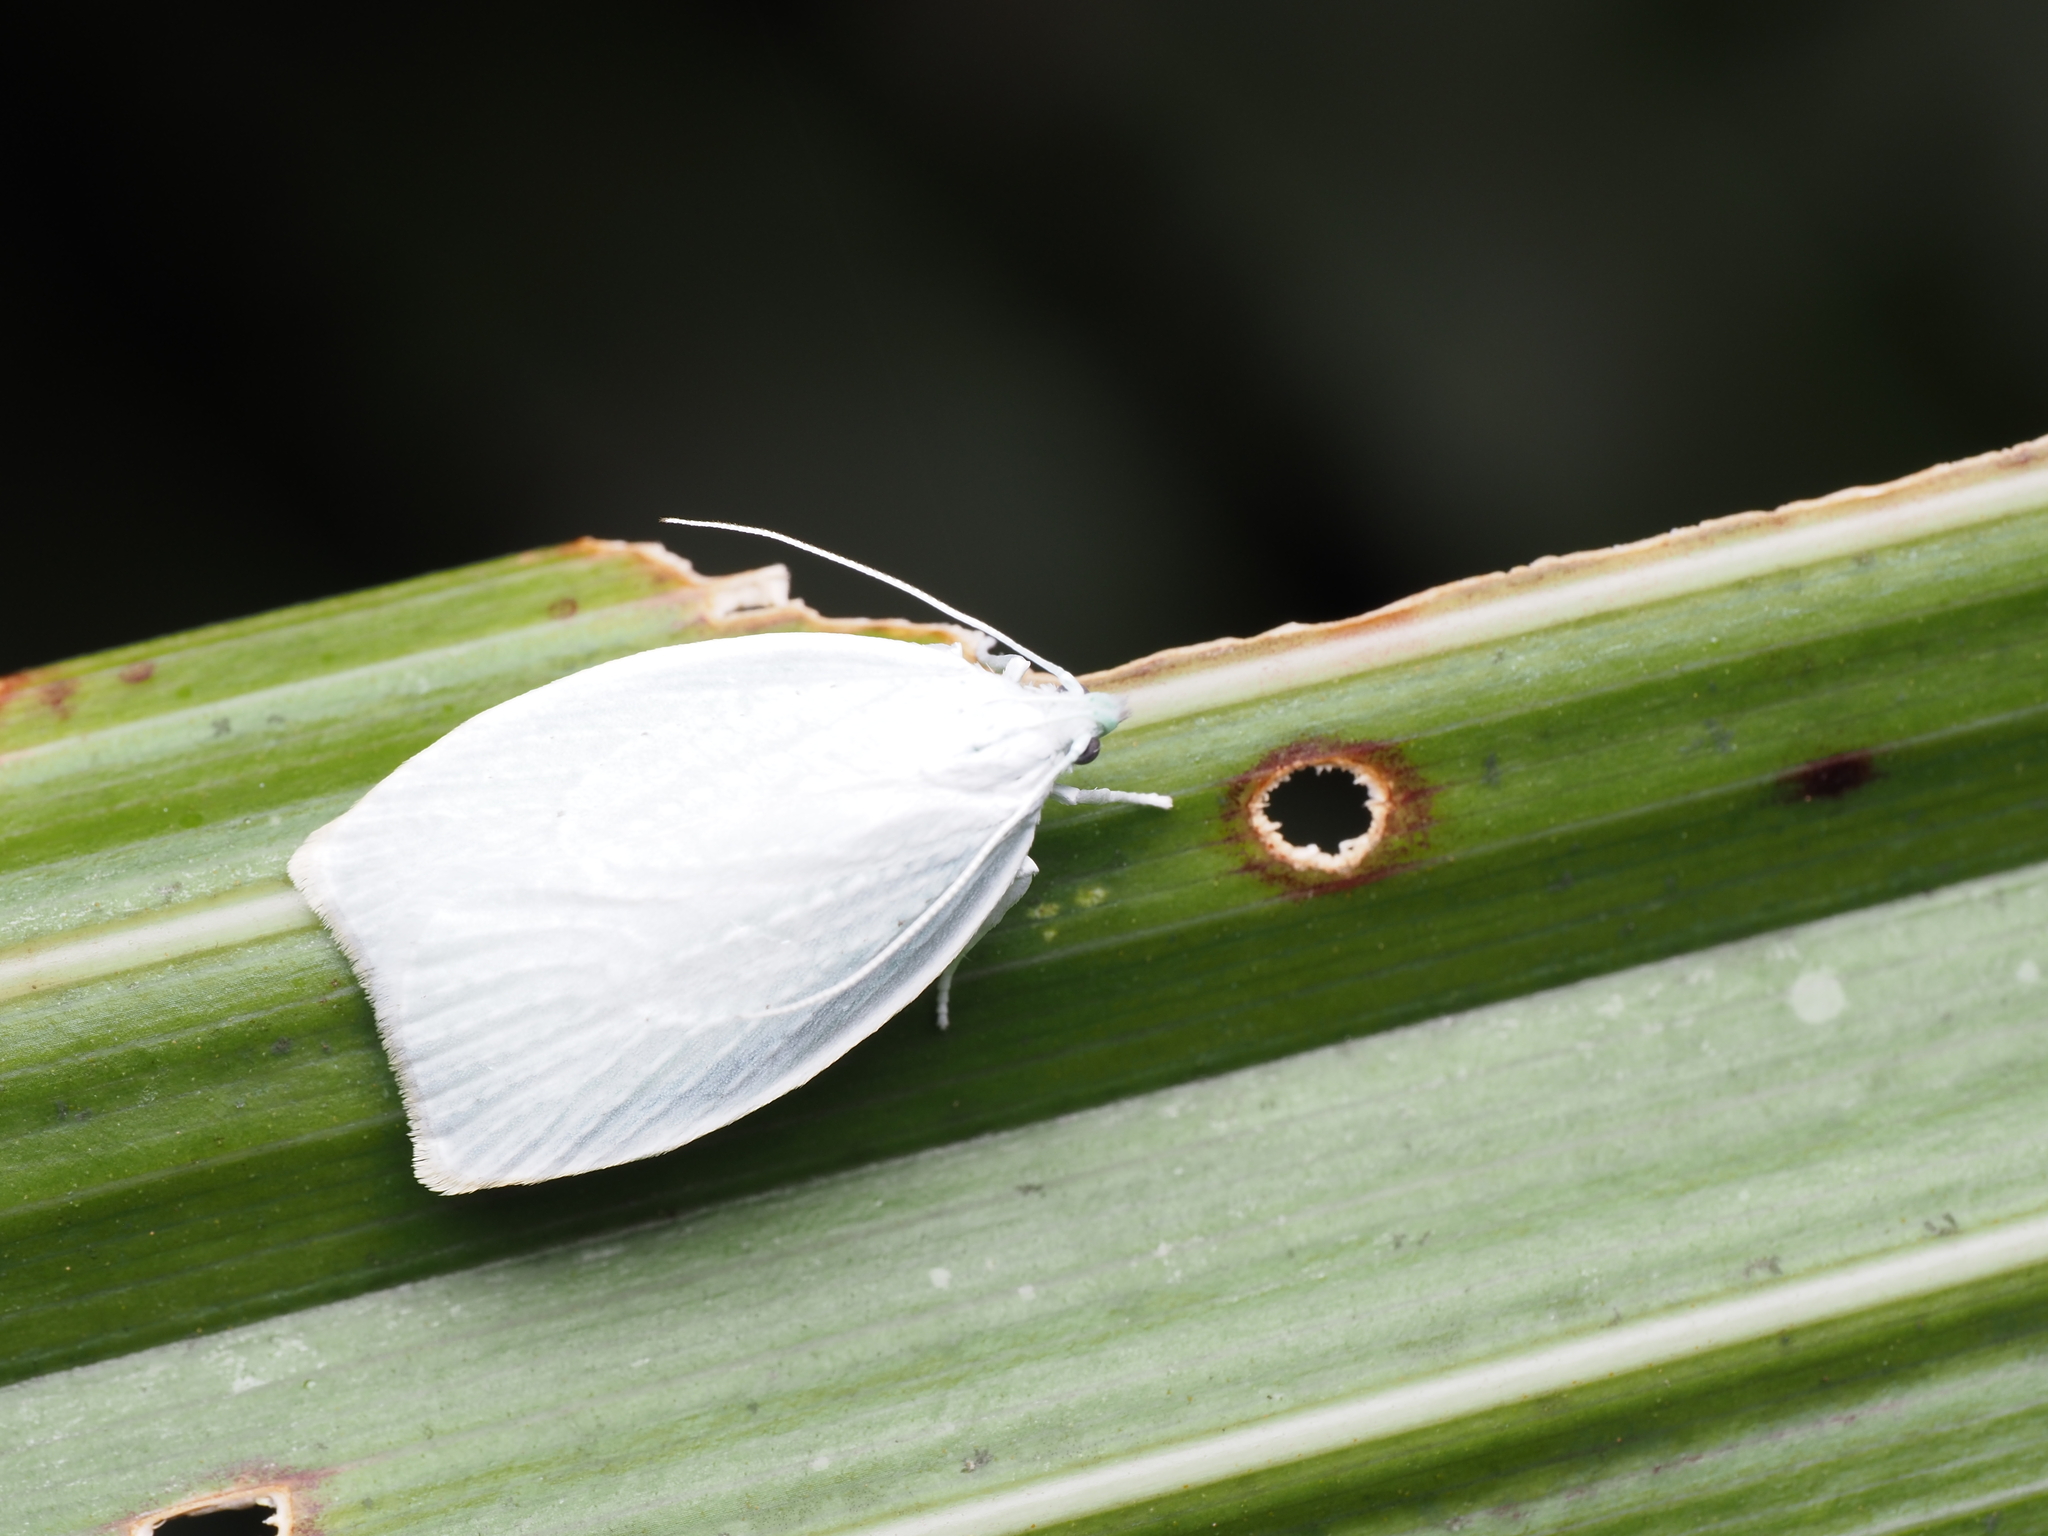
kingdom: Animalia
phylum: Arthropoda
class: Insecta
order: Lepidoptera
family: Oecophoridae
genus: Nymphostola
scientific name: Nymphostola galactina
